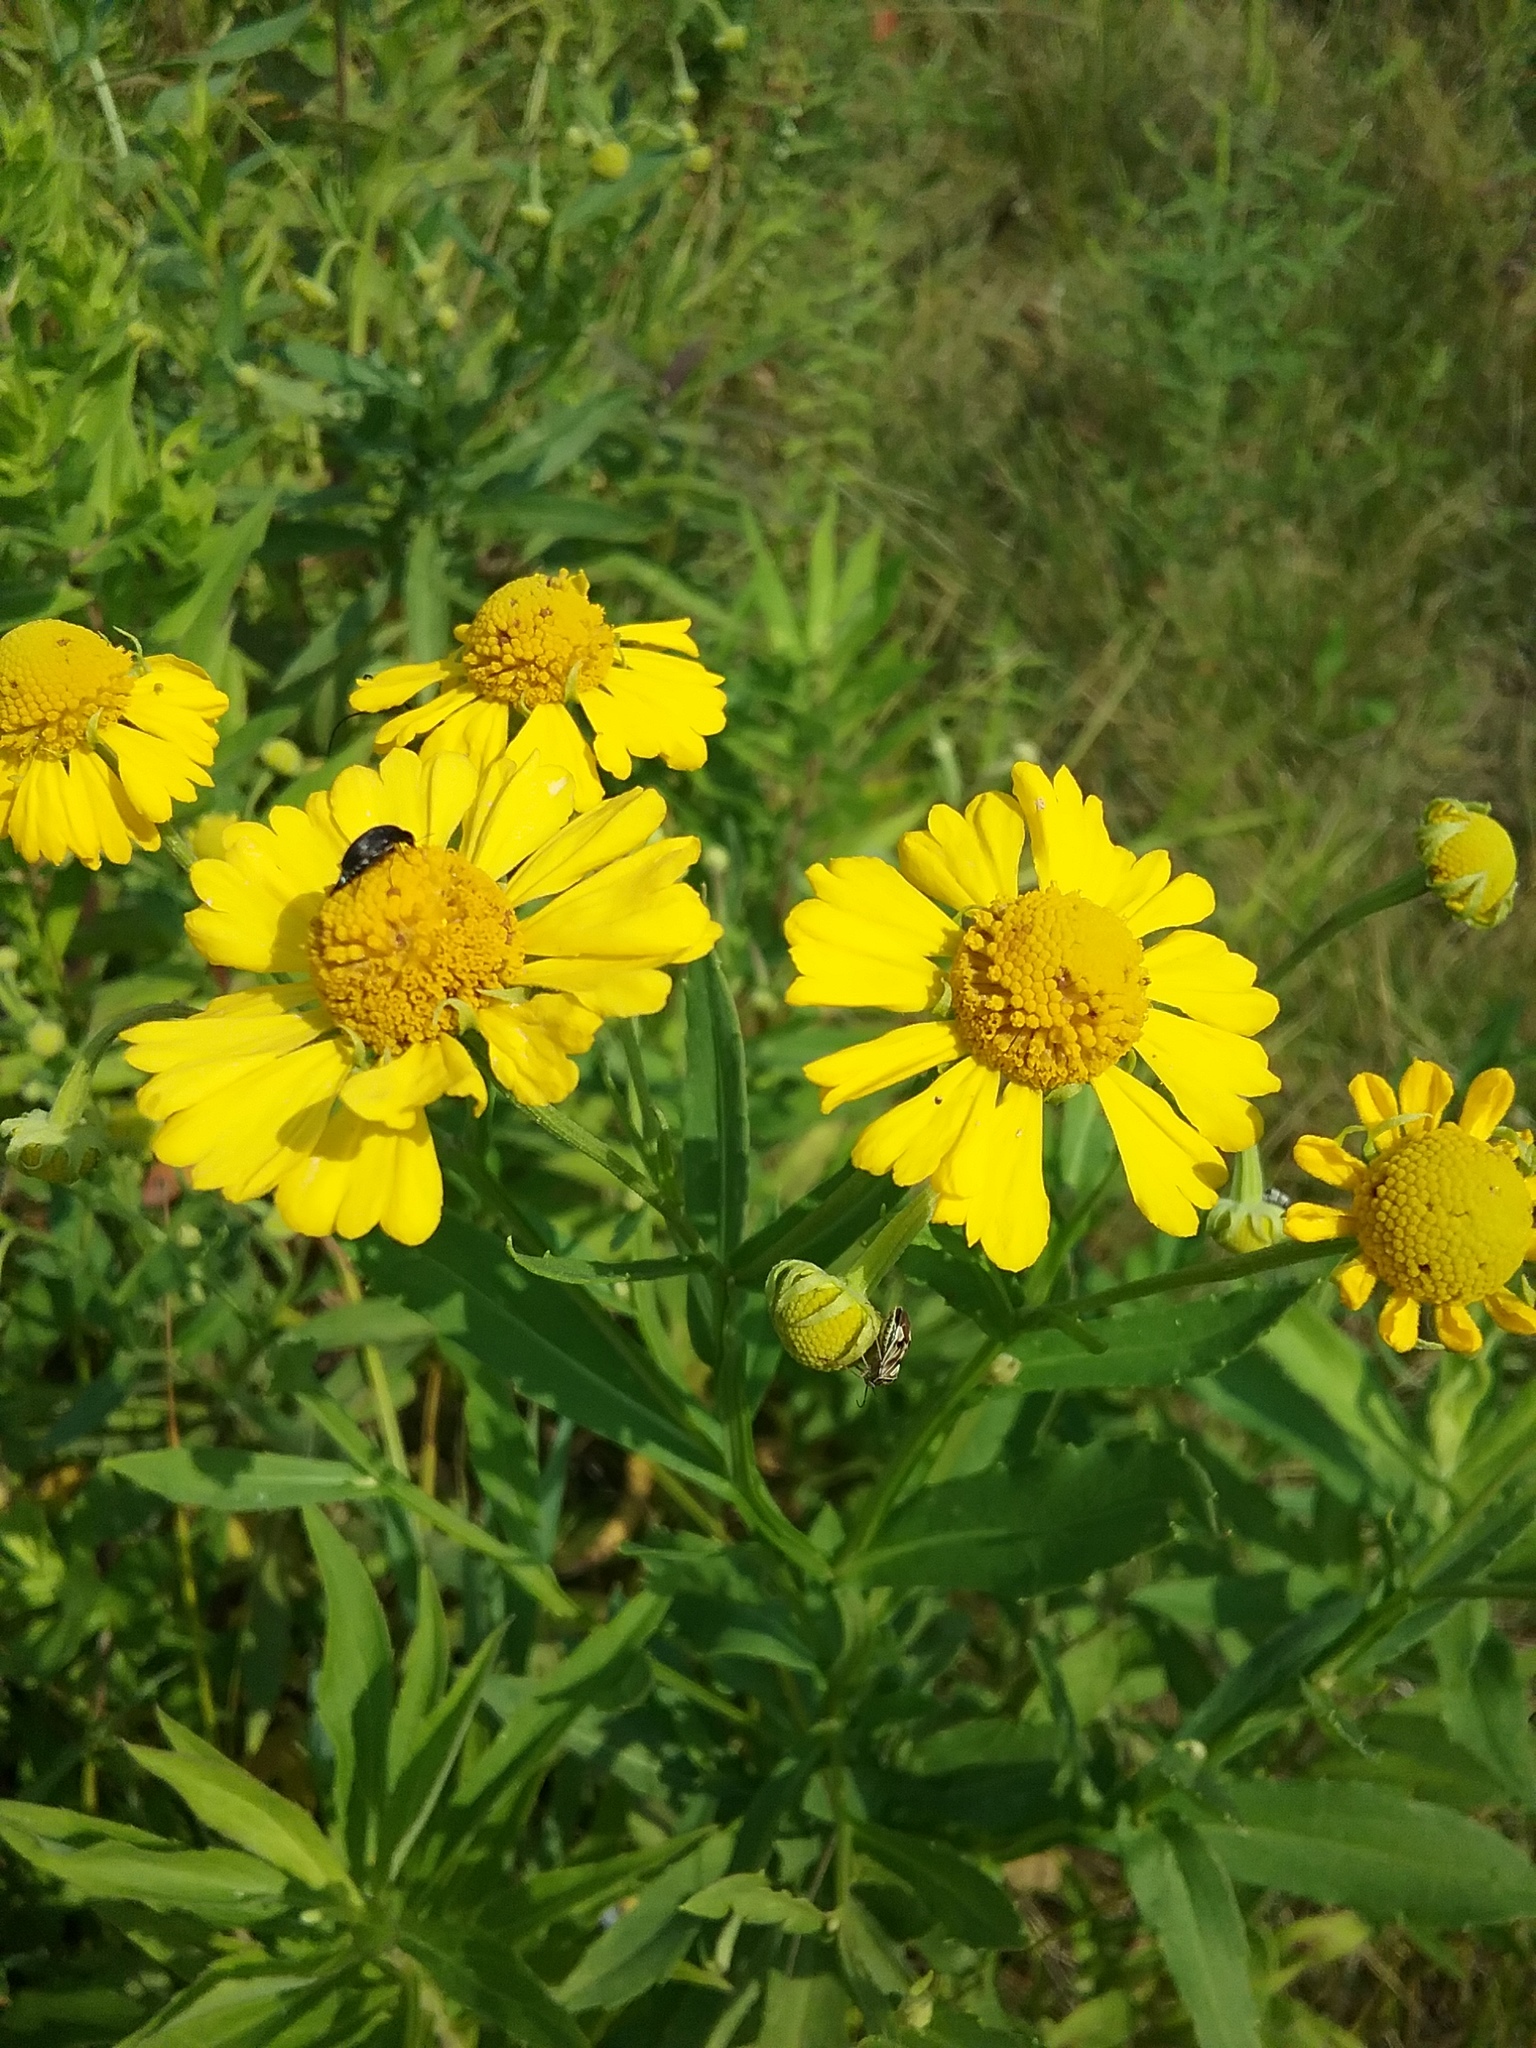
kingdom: Plantae
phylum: Tracheophyta
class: Magnoliopsida
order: Asterales
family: Asteraceae
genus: Helenium
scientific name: Helenium autumnale
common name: Sneezeweed
